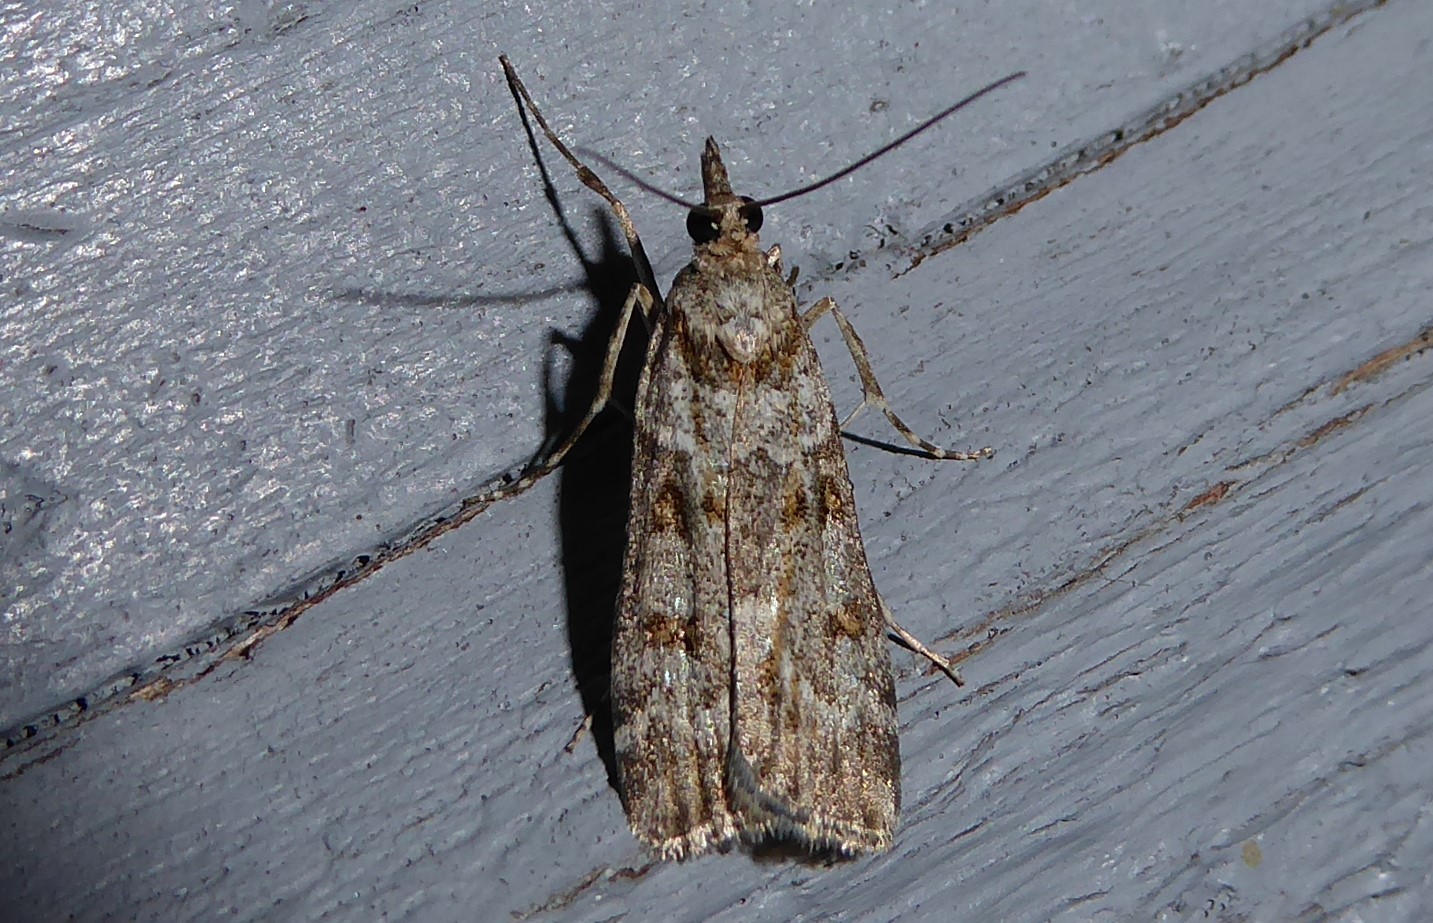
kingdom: Animalia
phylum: Arthropoda
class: Insecta
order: Lepidoptera
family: Crambidae
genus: Eudonia
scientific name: Eudonia diphtheralis
